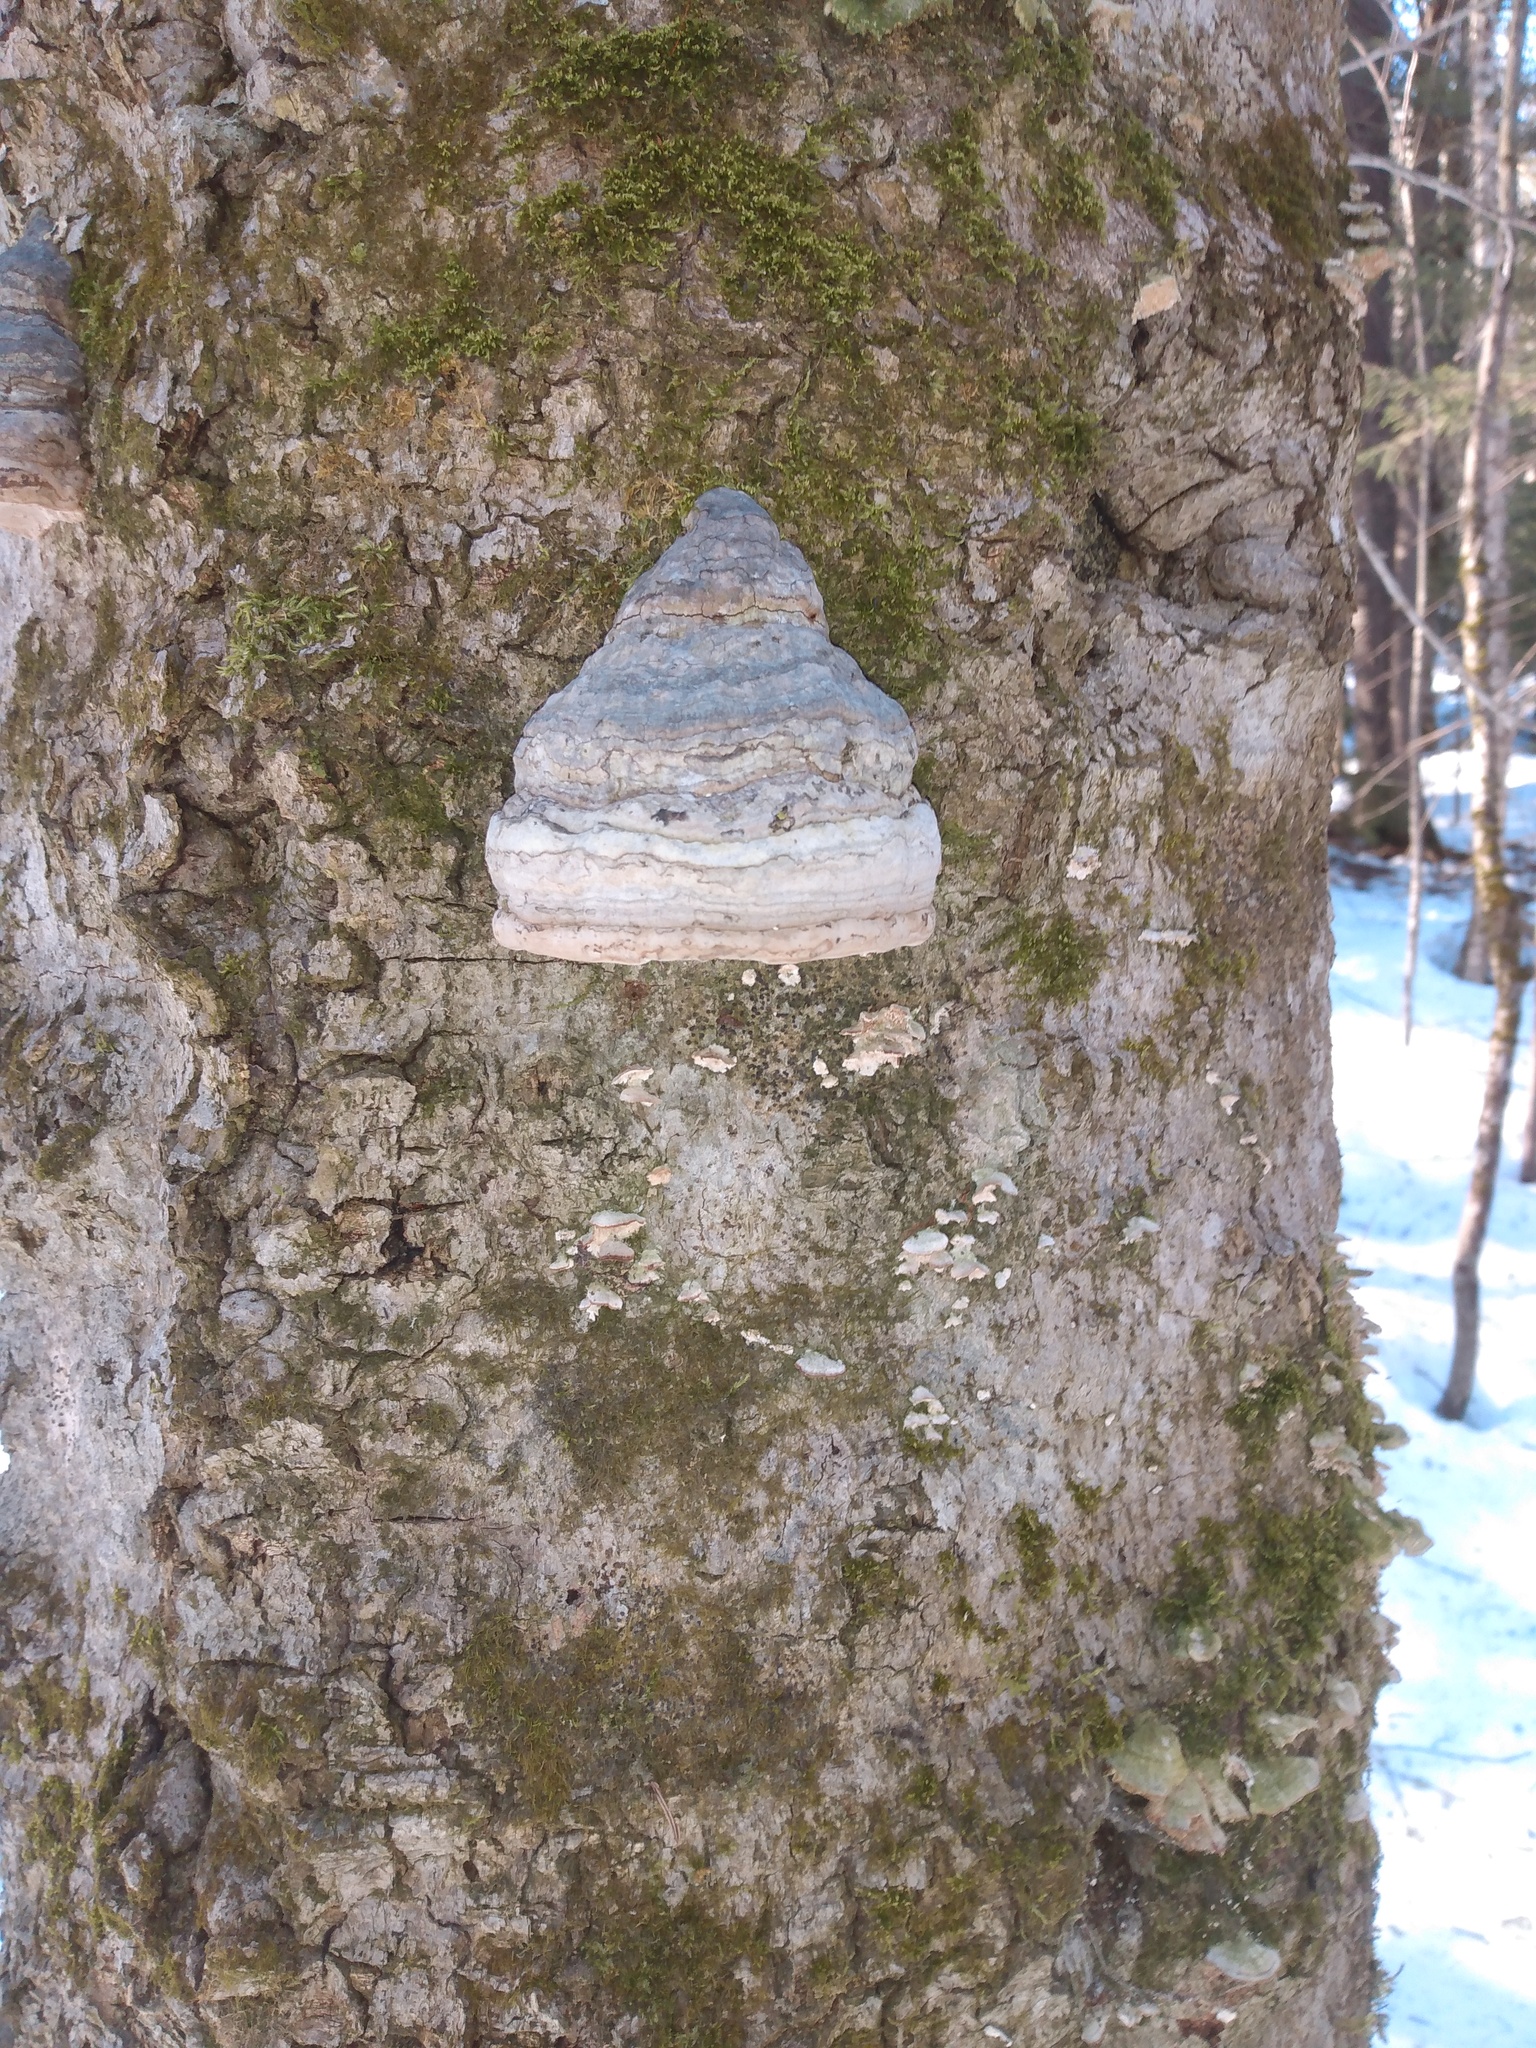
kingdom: Fungi
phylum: Basidiomycota
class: Agaricomycetes
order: Polyporales
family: Polyporaceae
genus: Fomes
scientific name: Fomes fomentarius
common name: Hoof fungus
